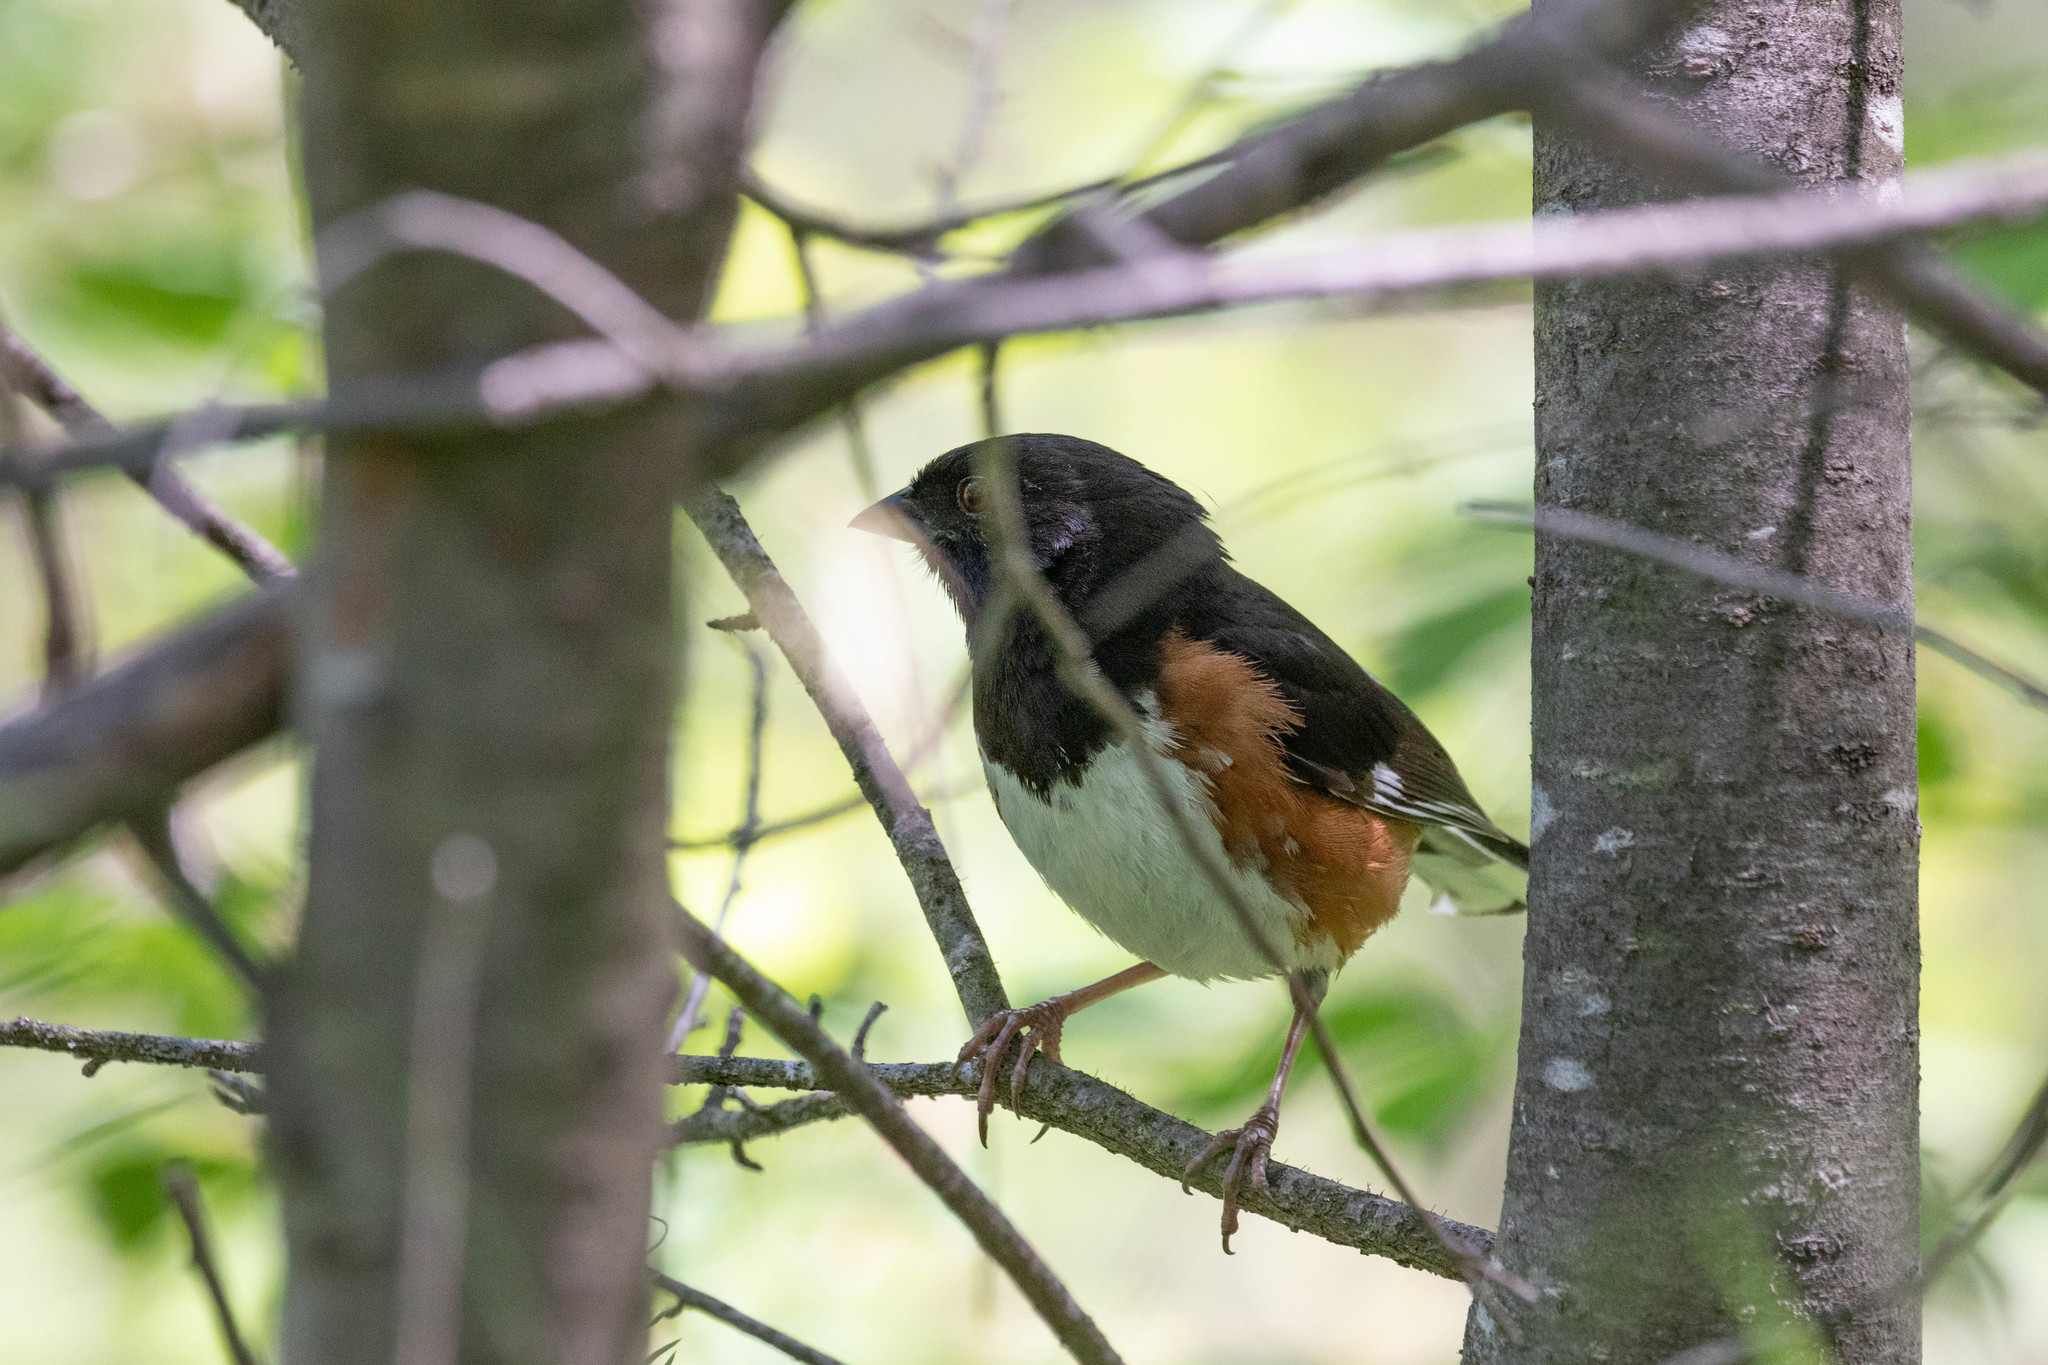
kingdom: Animalia
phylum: Chordata
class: Aves
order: Passeriformes
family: Passerellidae
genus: Pipilo
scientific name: Pipilo erythrophthalmus
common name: Eastern towhee
